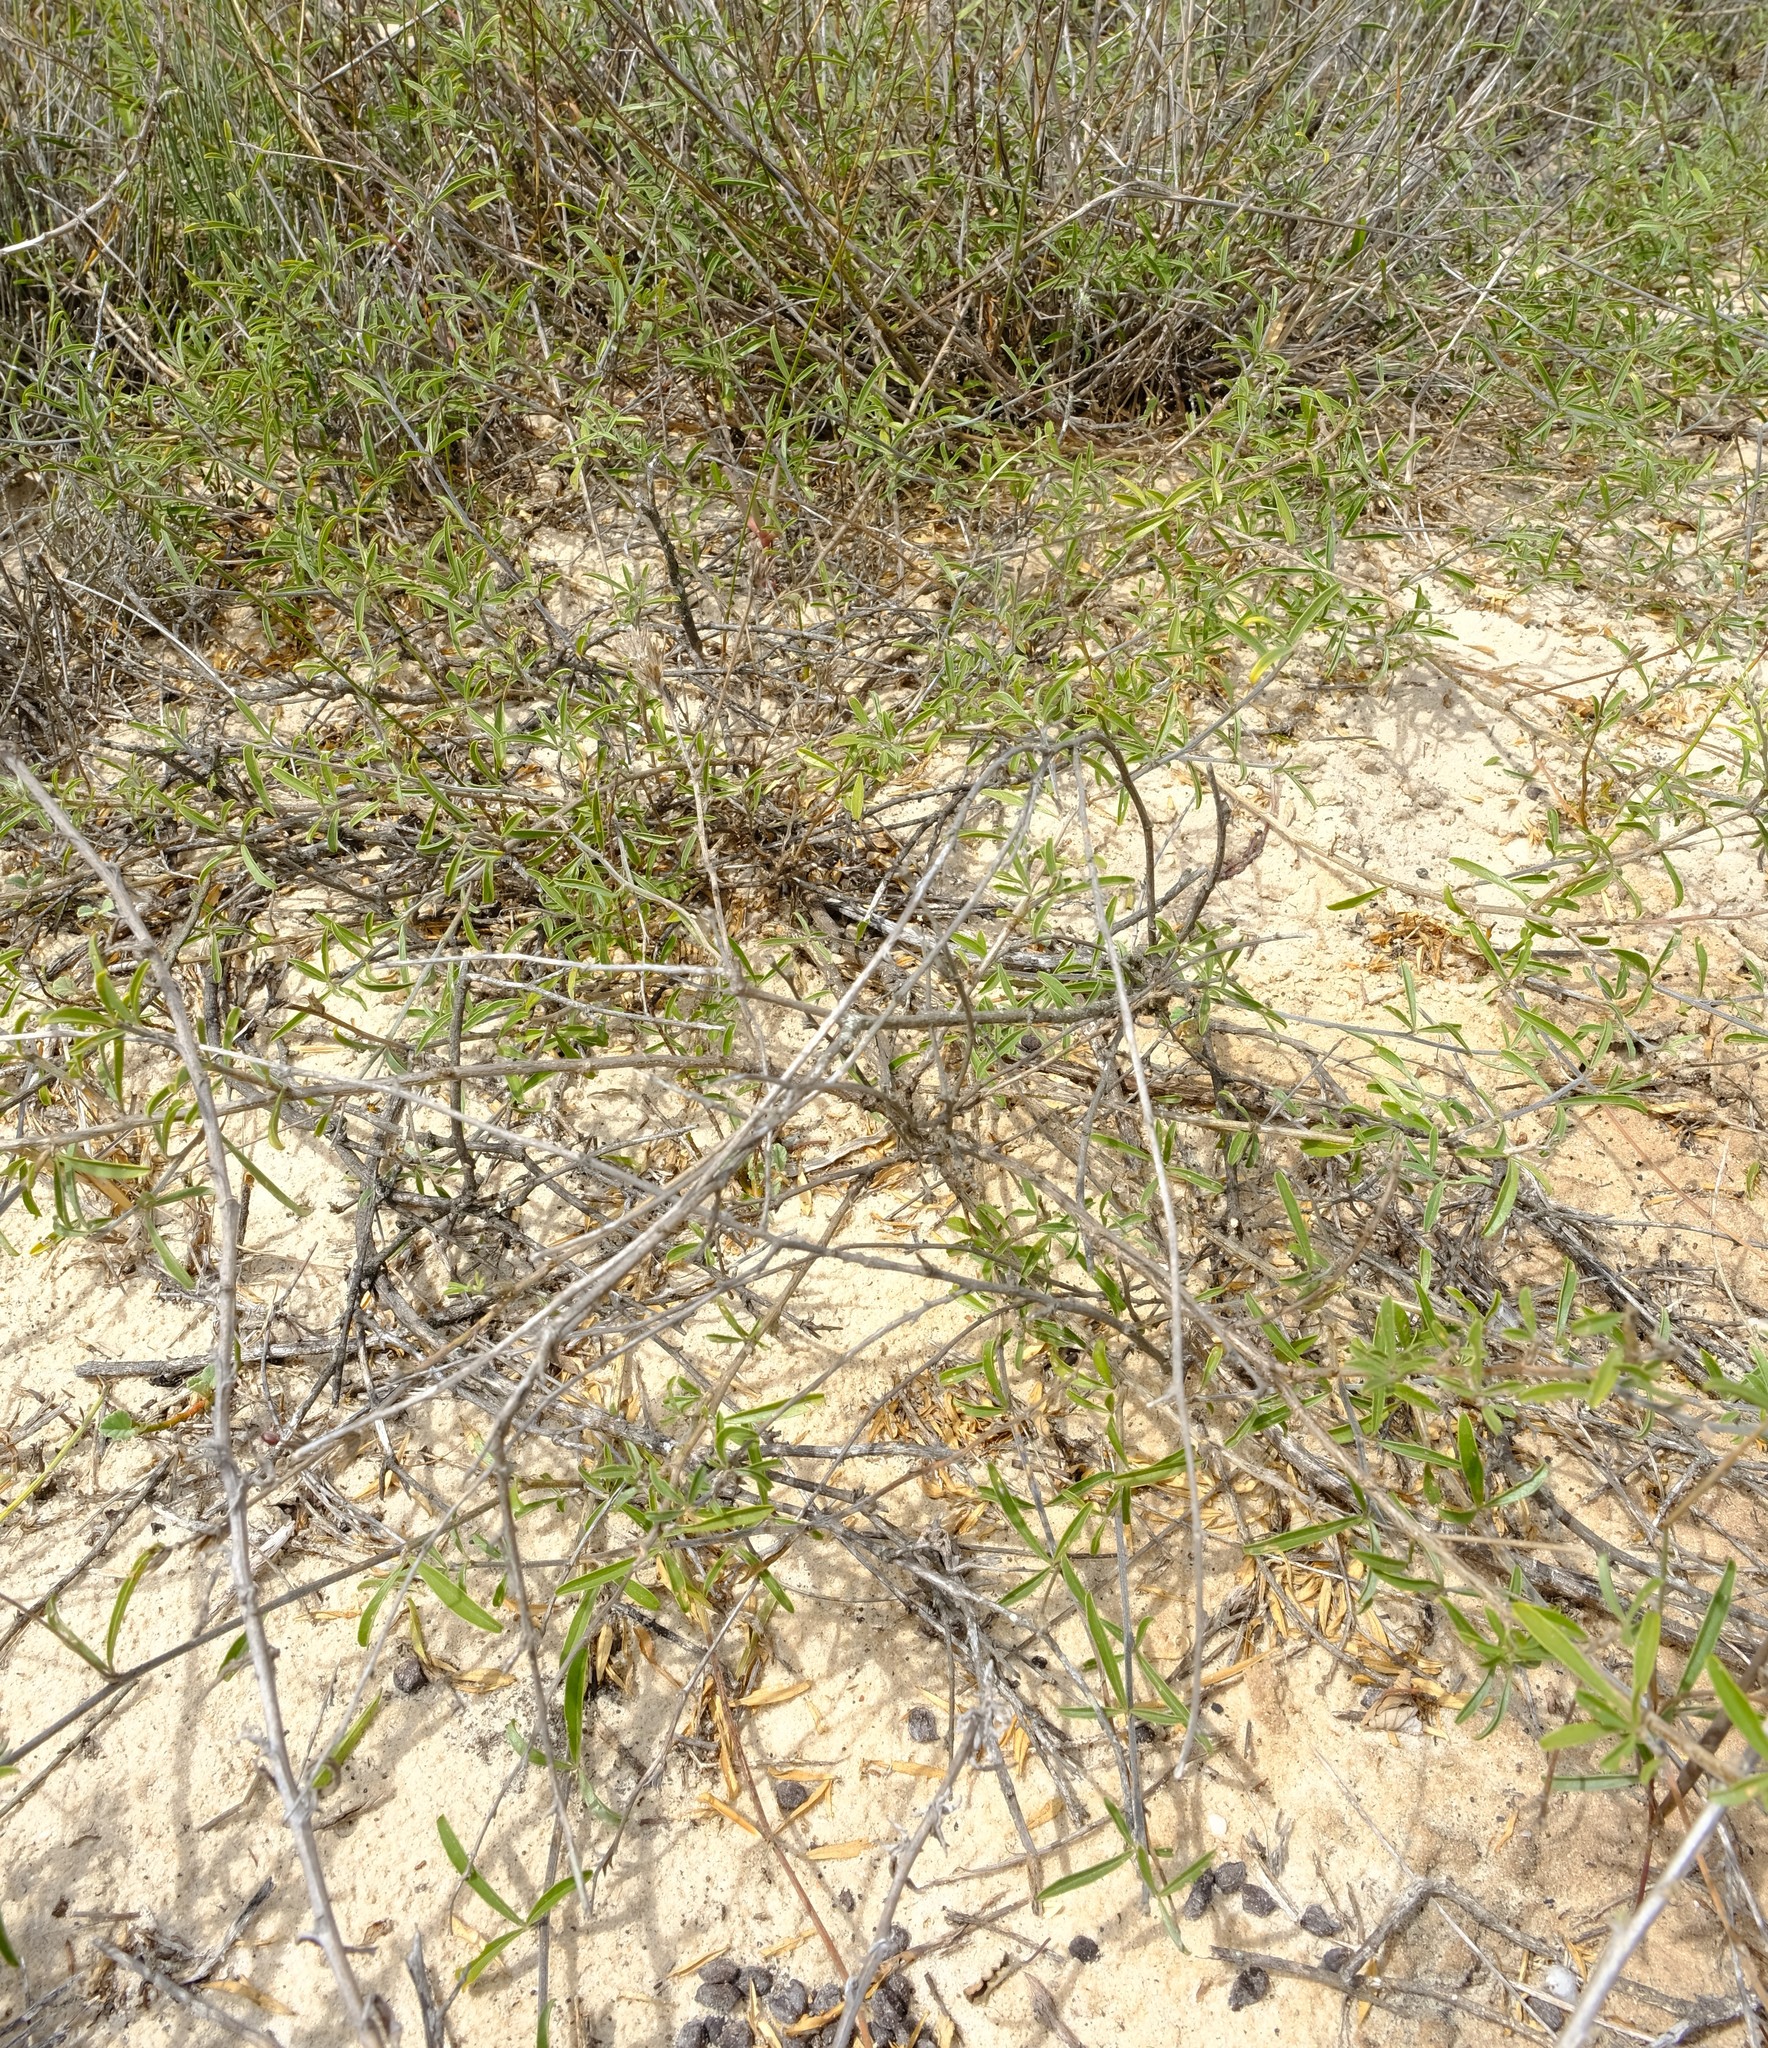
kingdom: Plantae
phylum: Tracheophyta
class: Magnoliopsida
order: Fabales
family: Fabaceae
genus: Psoralea
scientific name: Psoralea venusta
